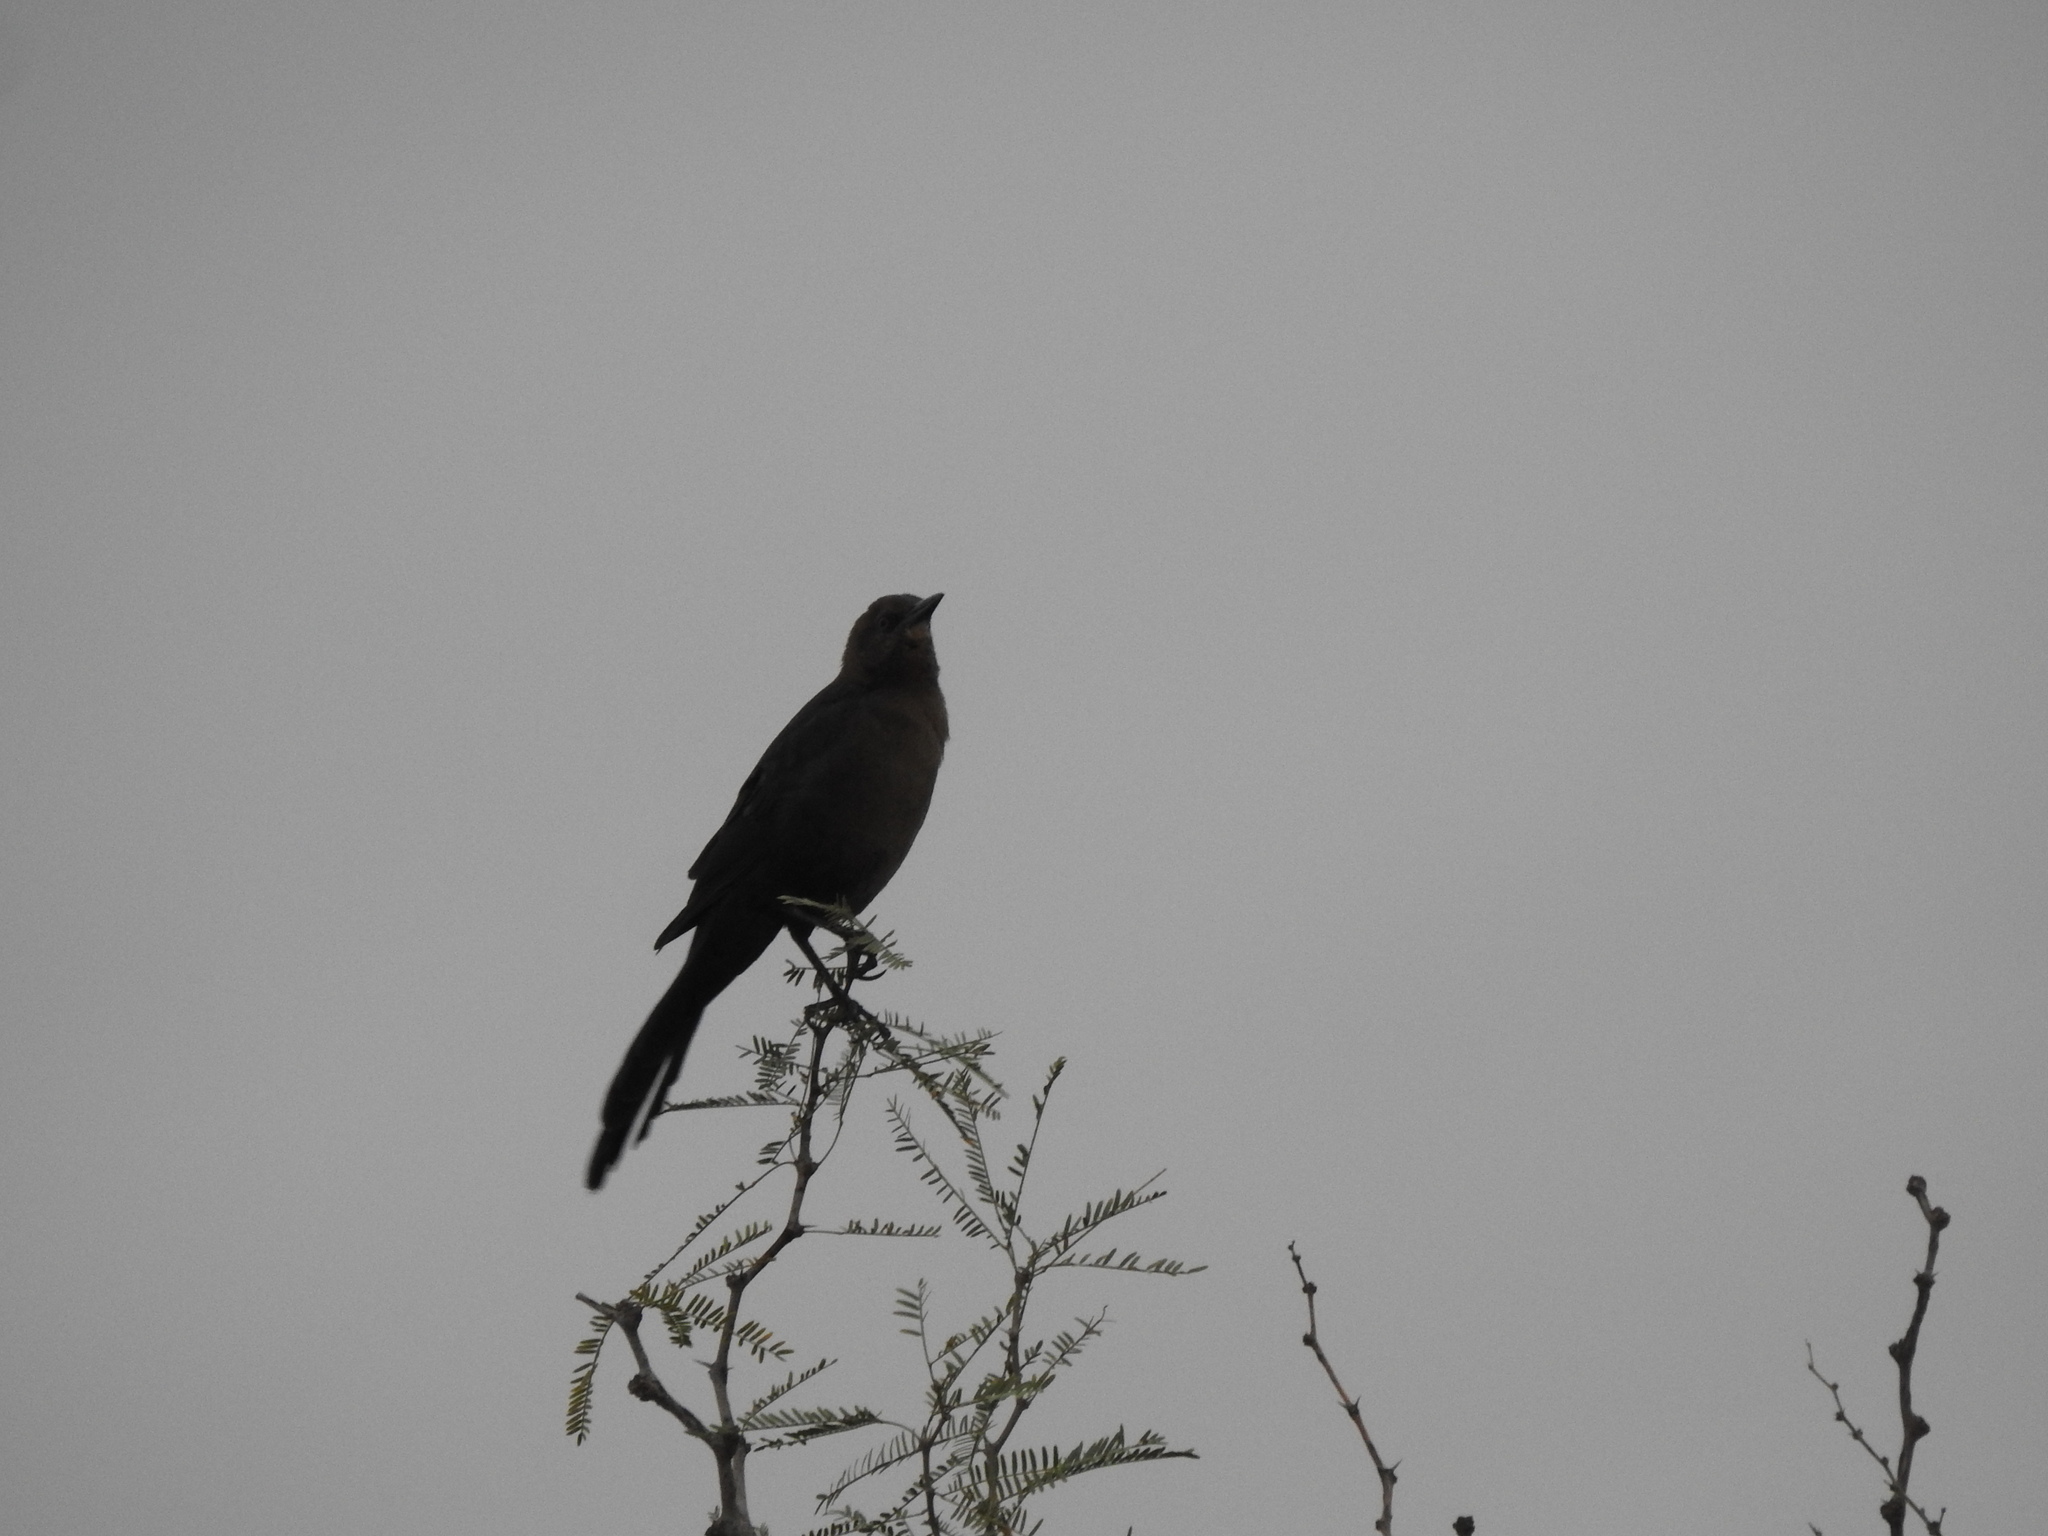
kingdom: Animalia
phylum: Chordata
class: Aves
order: Passeriformes
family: Icteridae
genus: Quiscalus
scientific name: Quiscalus mexicanus
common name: Great-tailed grackle
